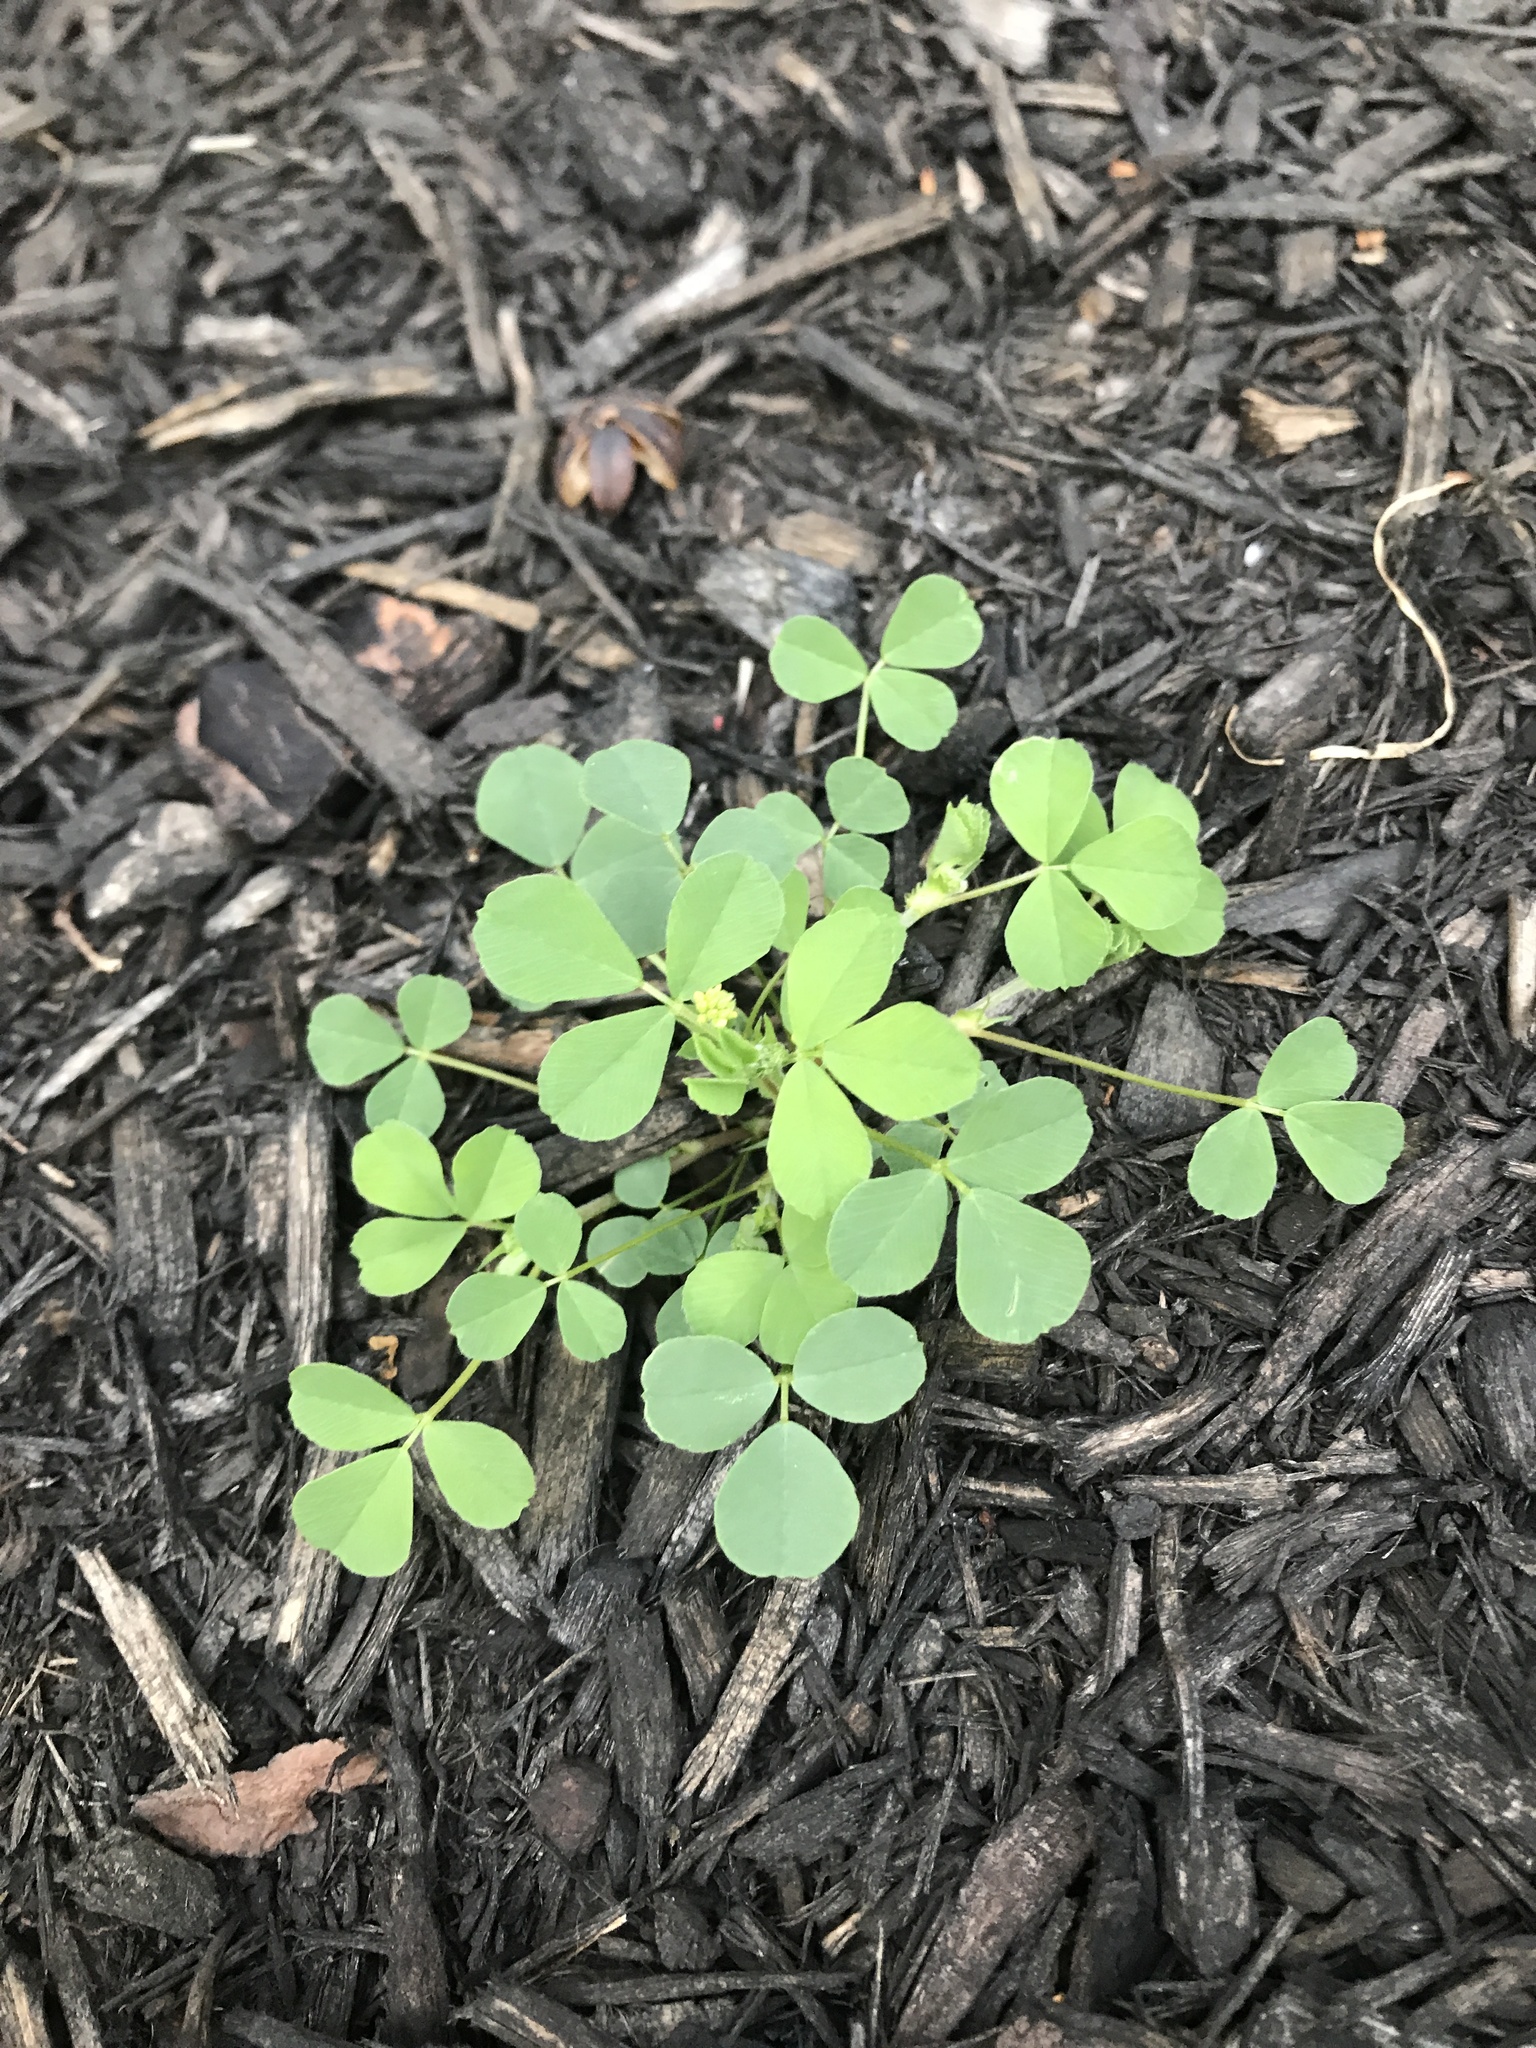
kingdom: Plantae
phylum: Tracheophyta
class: Magnoliopsida
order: Fabales
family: Fabaceae
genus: Medicago
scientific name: Medicago lupulina
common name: Black medick
